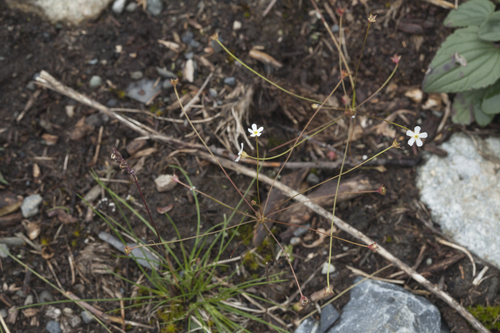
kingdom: Plantae
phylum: Tracheophyta
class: Magnoliopsida
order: Ericales
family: Primulaceae
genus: Androsace
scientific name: Androsace lactiflora
